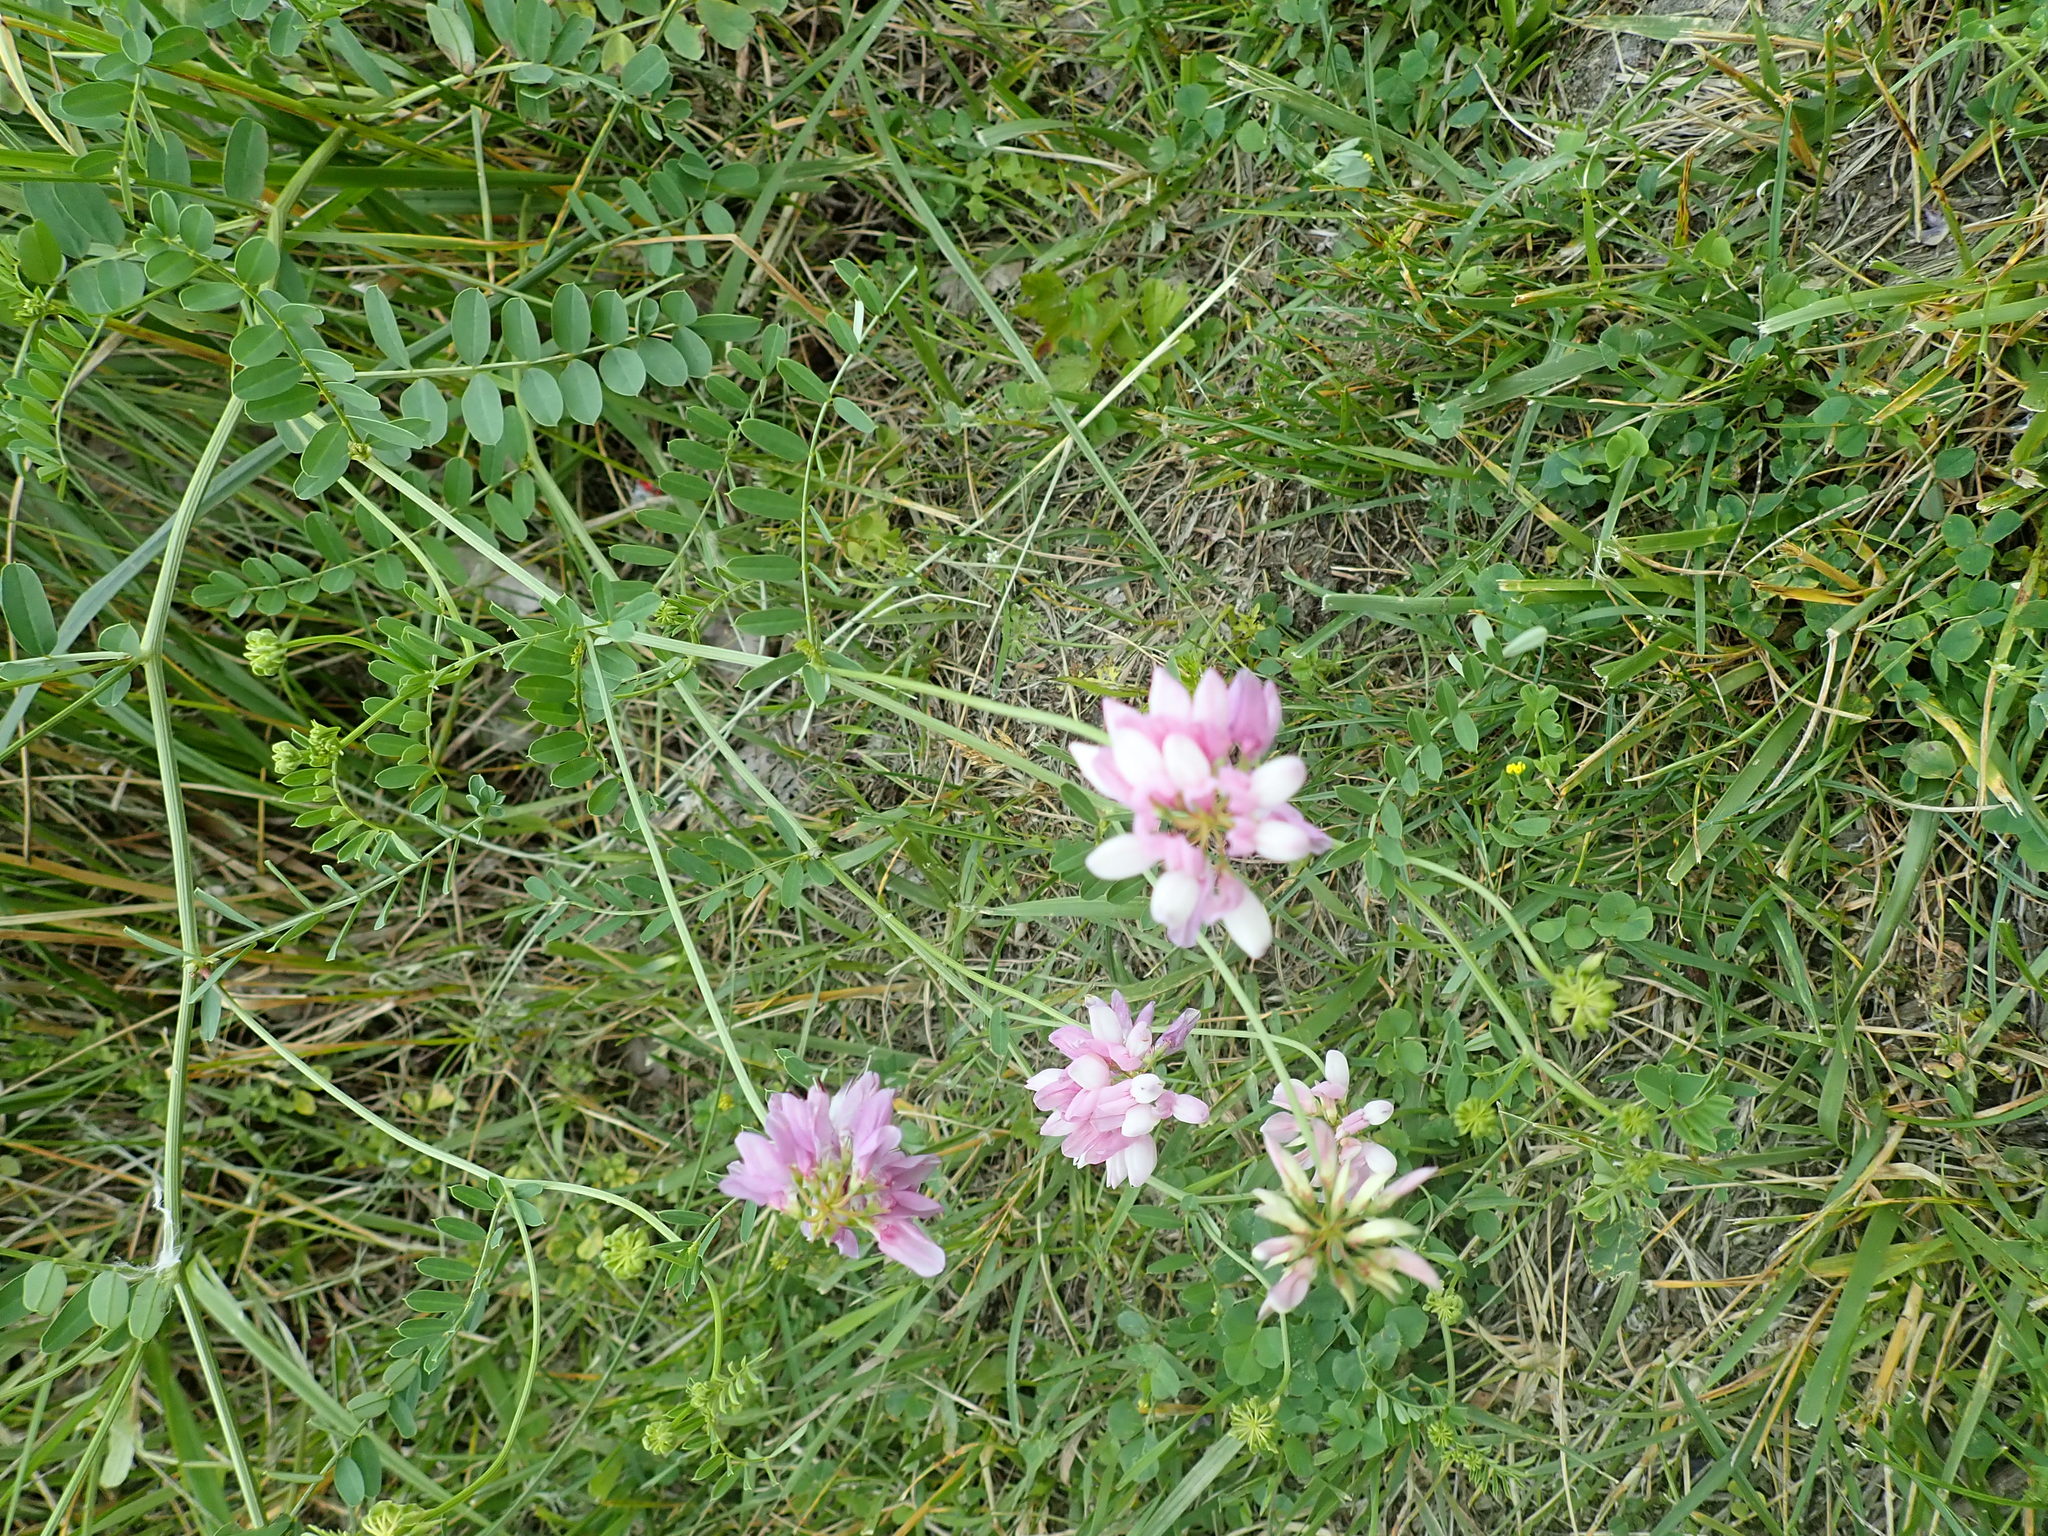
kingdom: Plantae
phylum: Tracheophyta
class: Magnoliopsida
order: Fabales
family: Fabaceae
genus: Coronilla
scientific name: Coronilla varia
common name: Crownvetch
